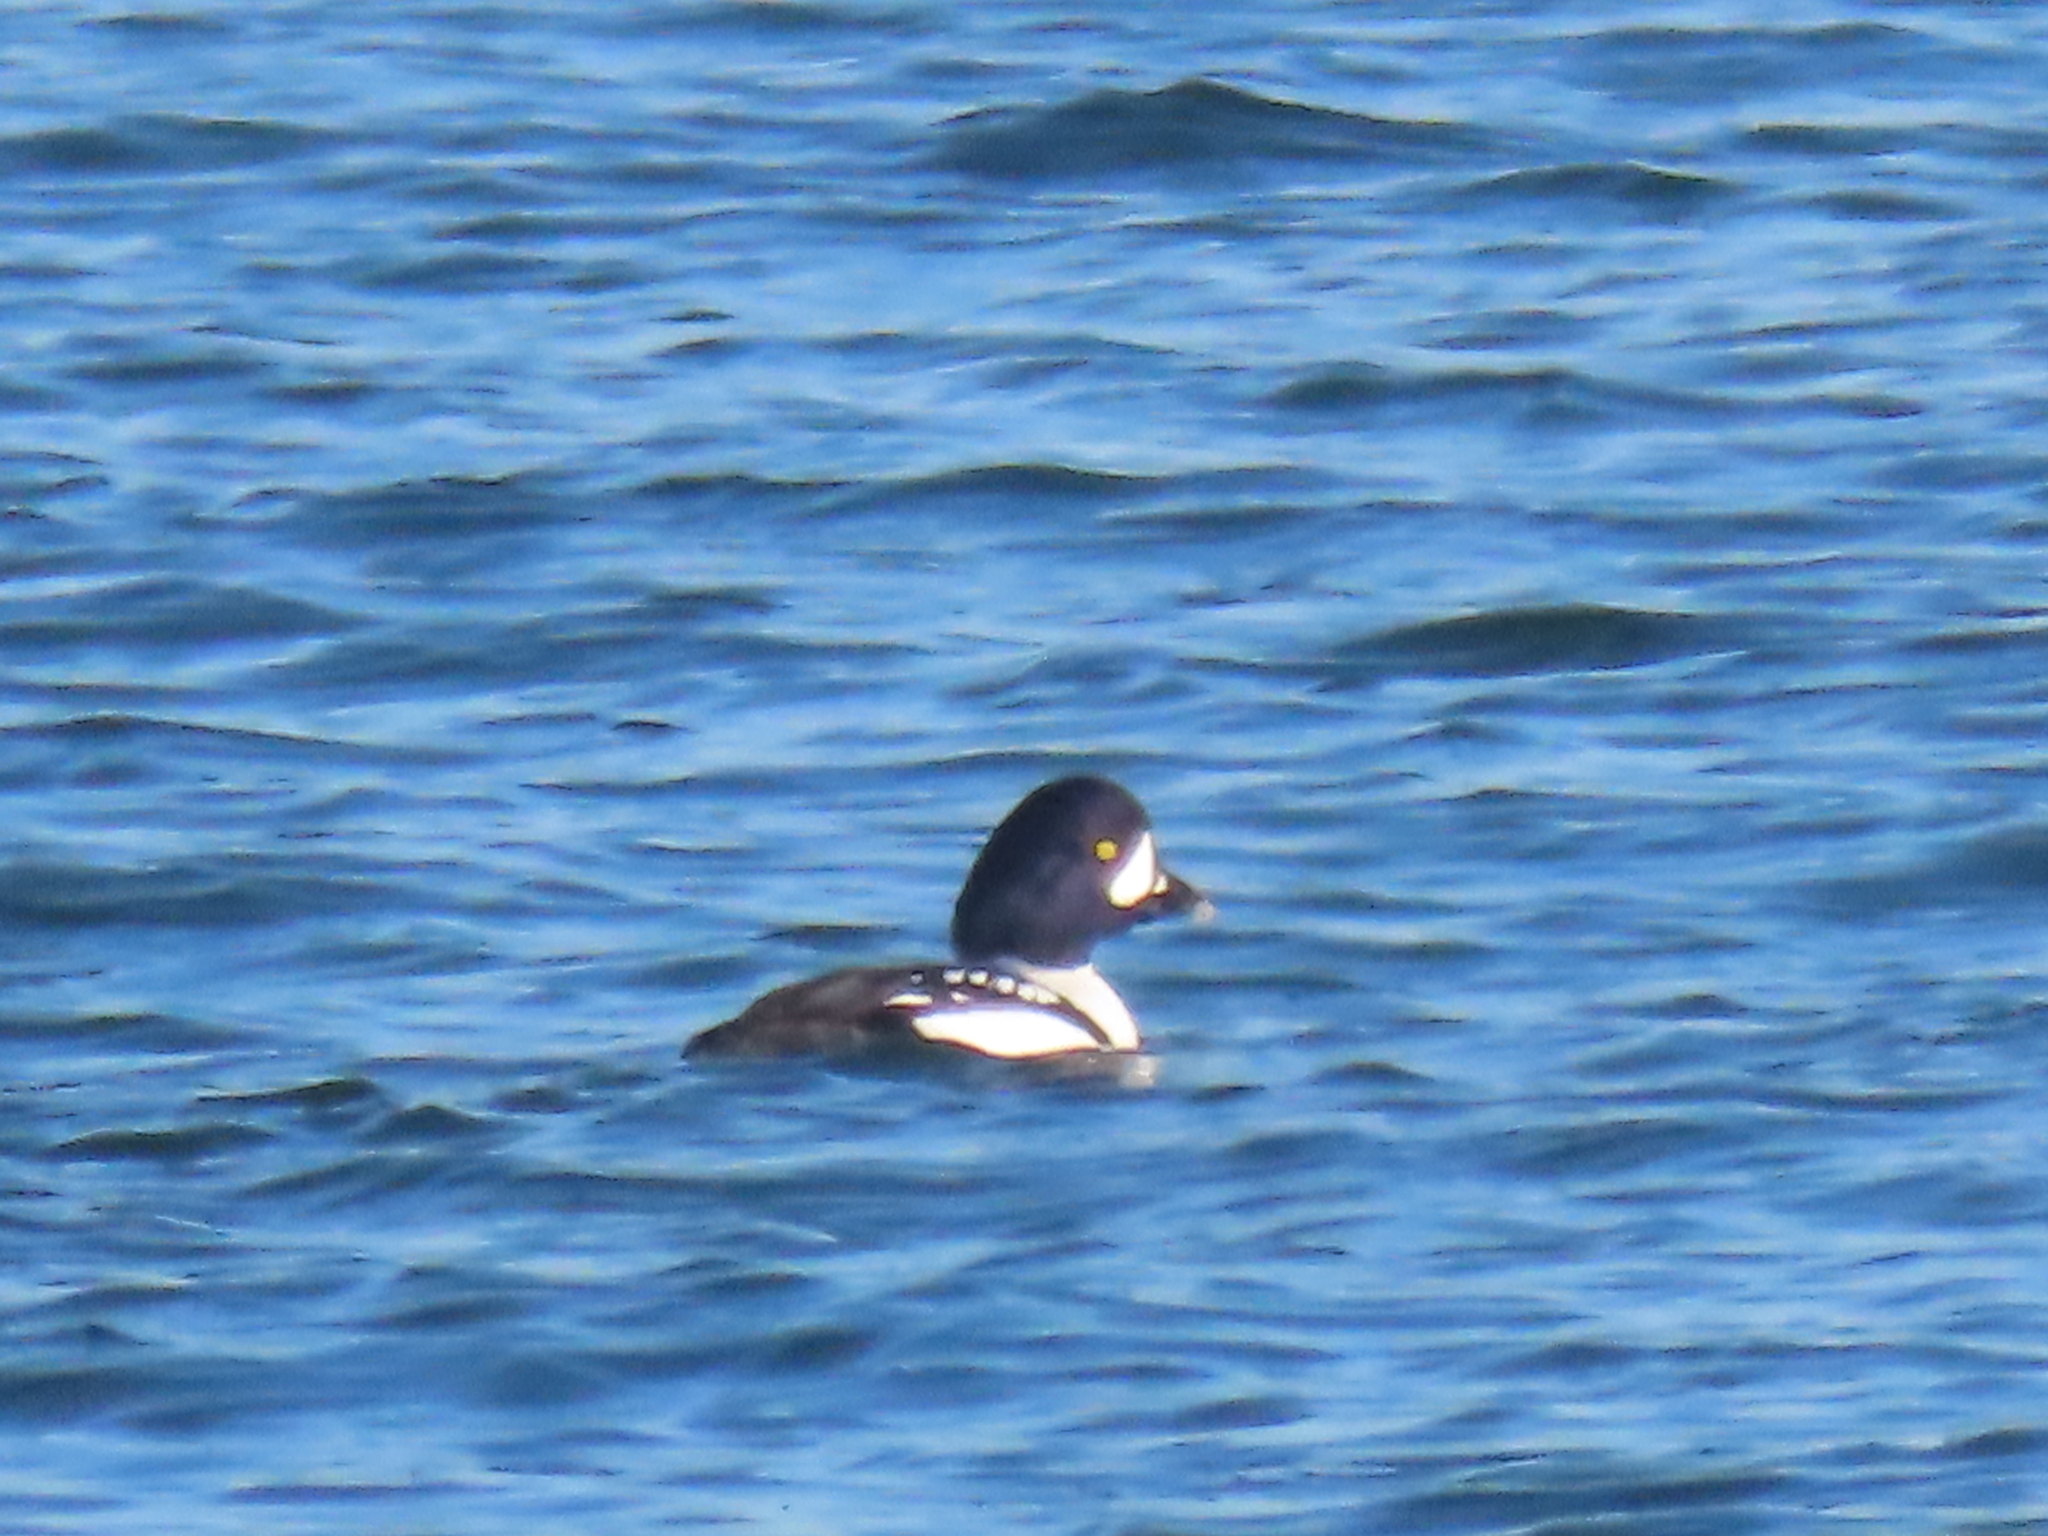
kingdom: Animalia
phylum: Chordata
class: Aves
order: Anseriformes
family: Anatidae
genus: Bucephala
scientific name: Bucephala islandica
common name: Barrow's goldeneye
